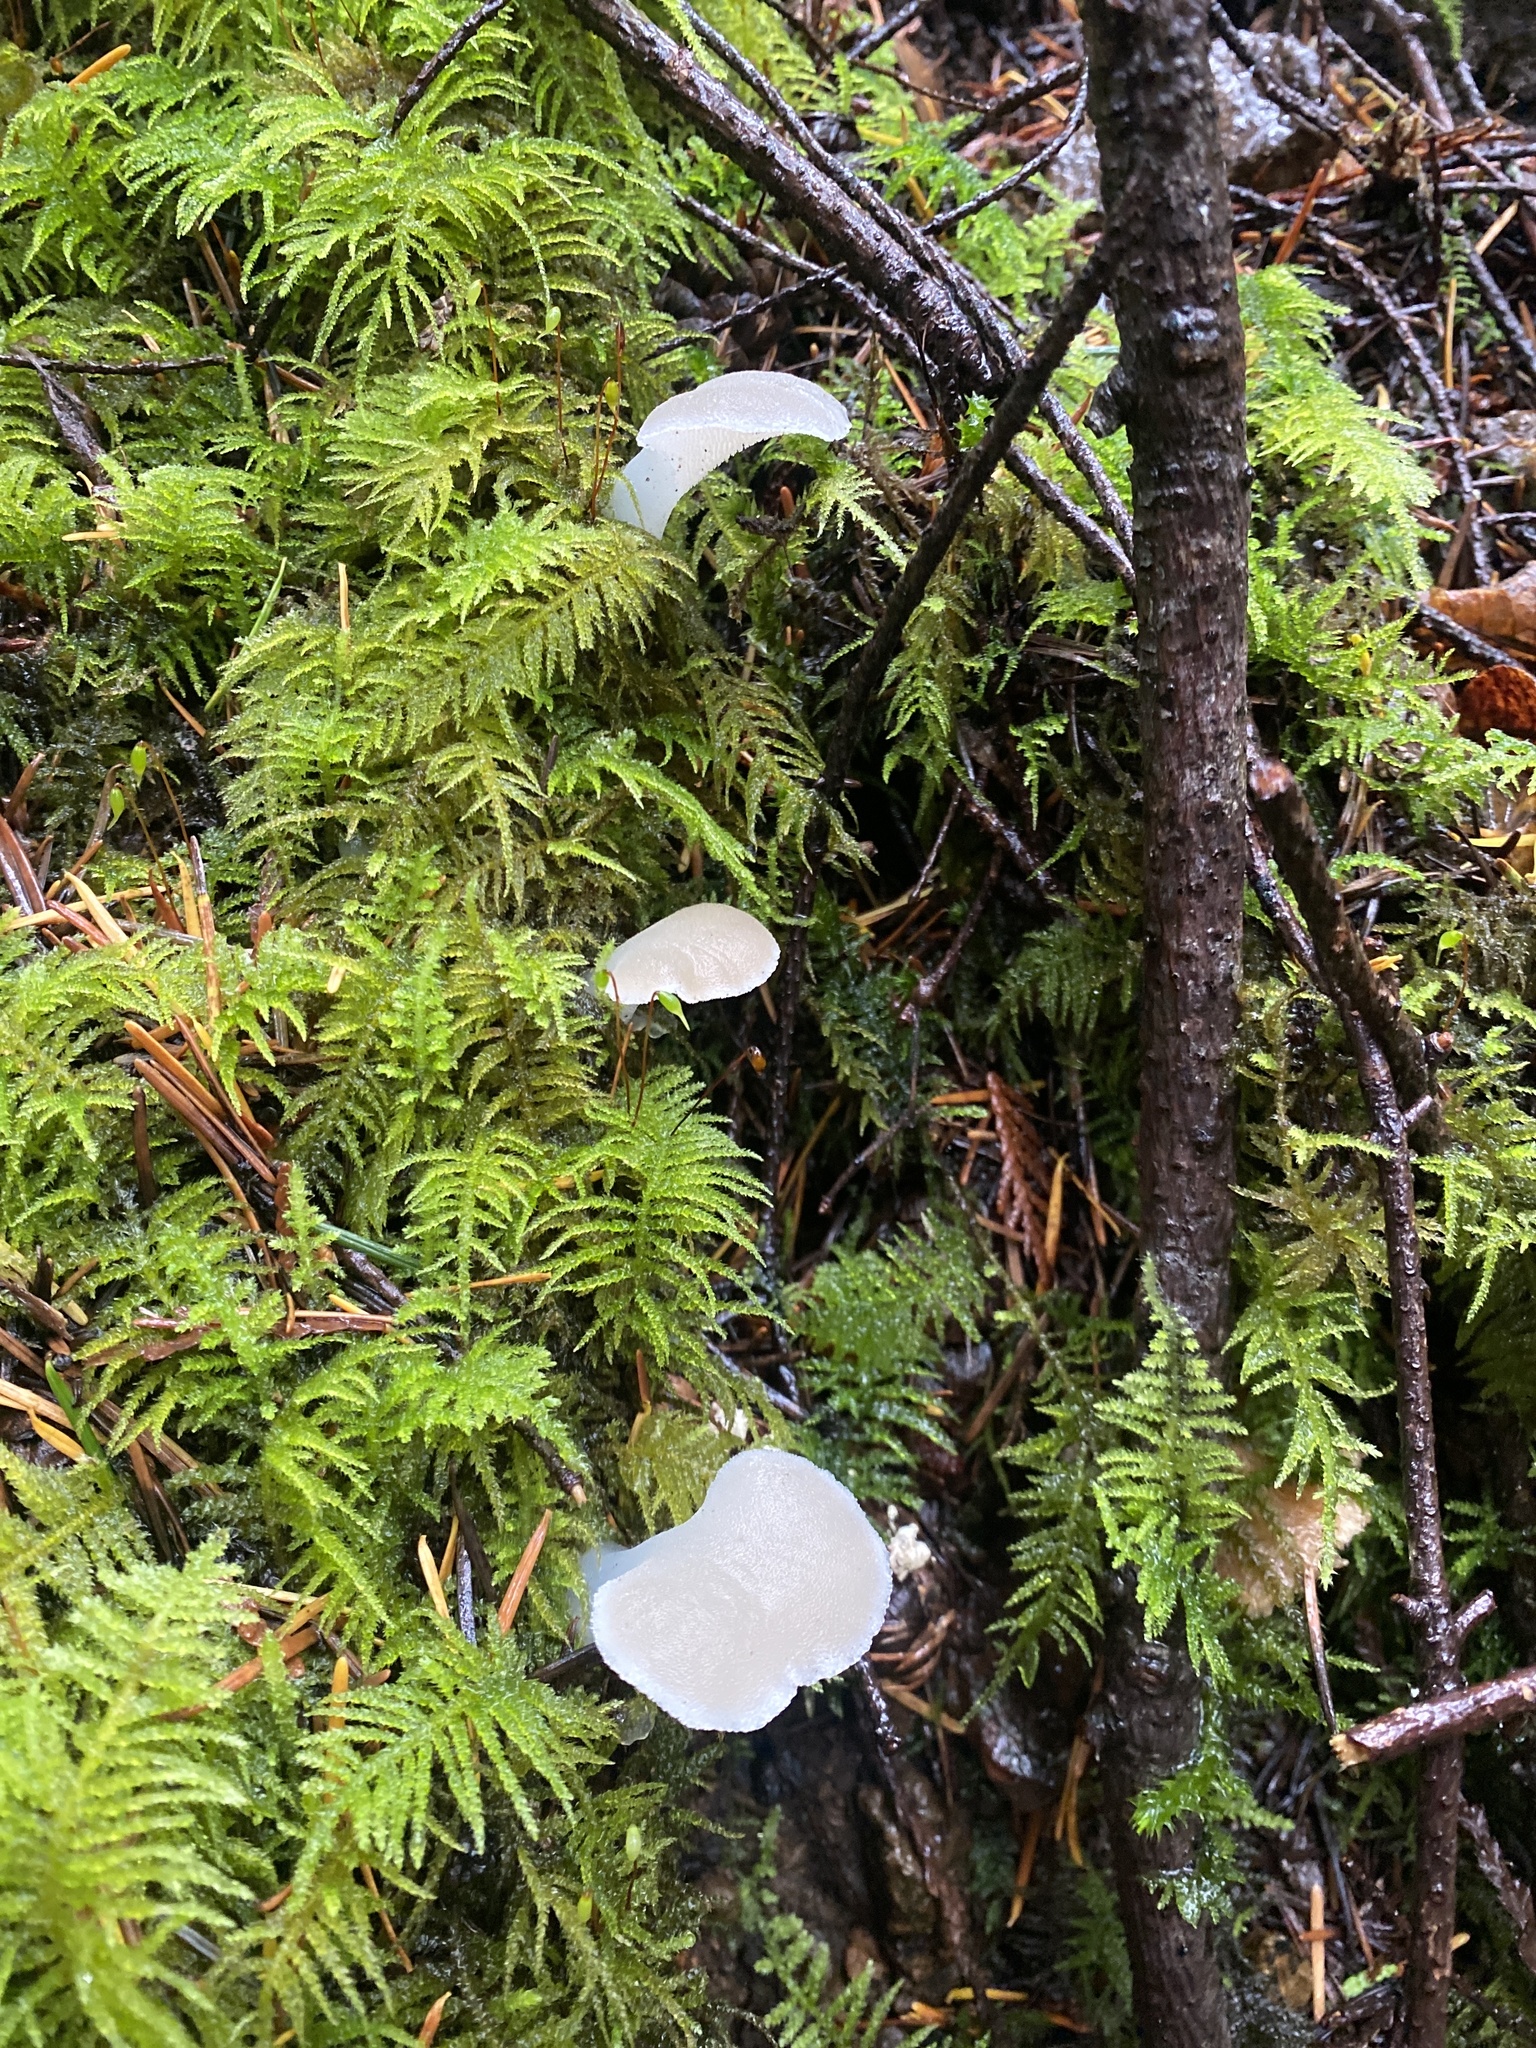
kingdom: Fungi
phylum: Basidiomycota
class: Agaricomycetes
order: Auriculariales
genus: Pseudohydnum
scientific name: Pseudohydnum gelatinosum
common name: Jelly tongue
